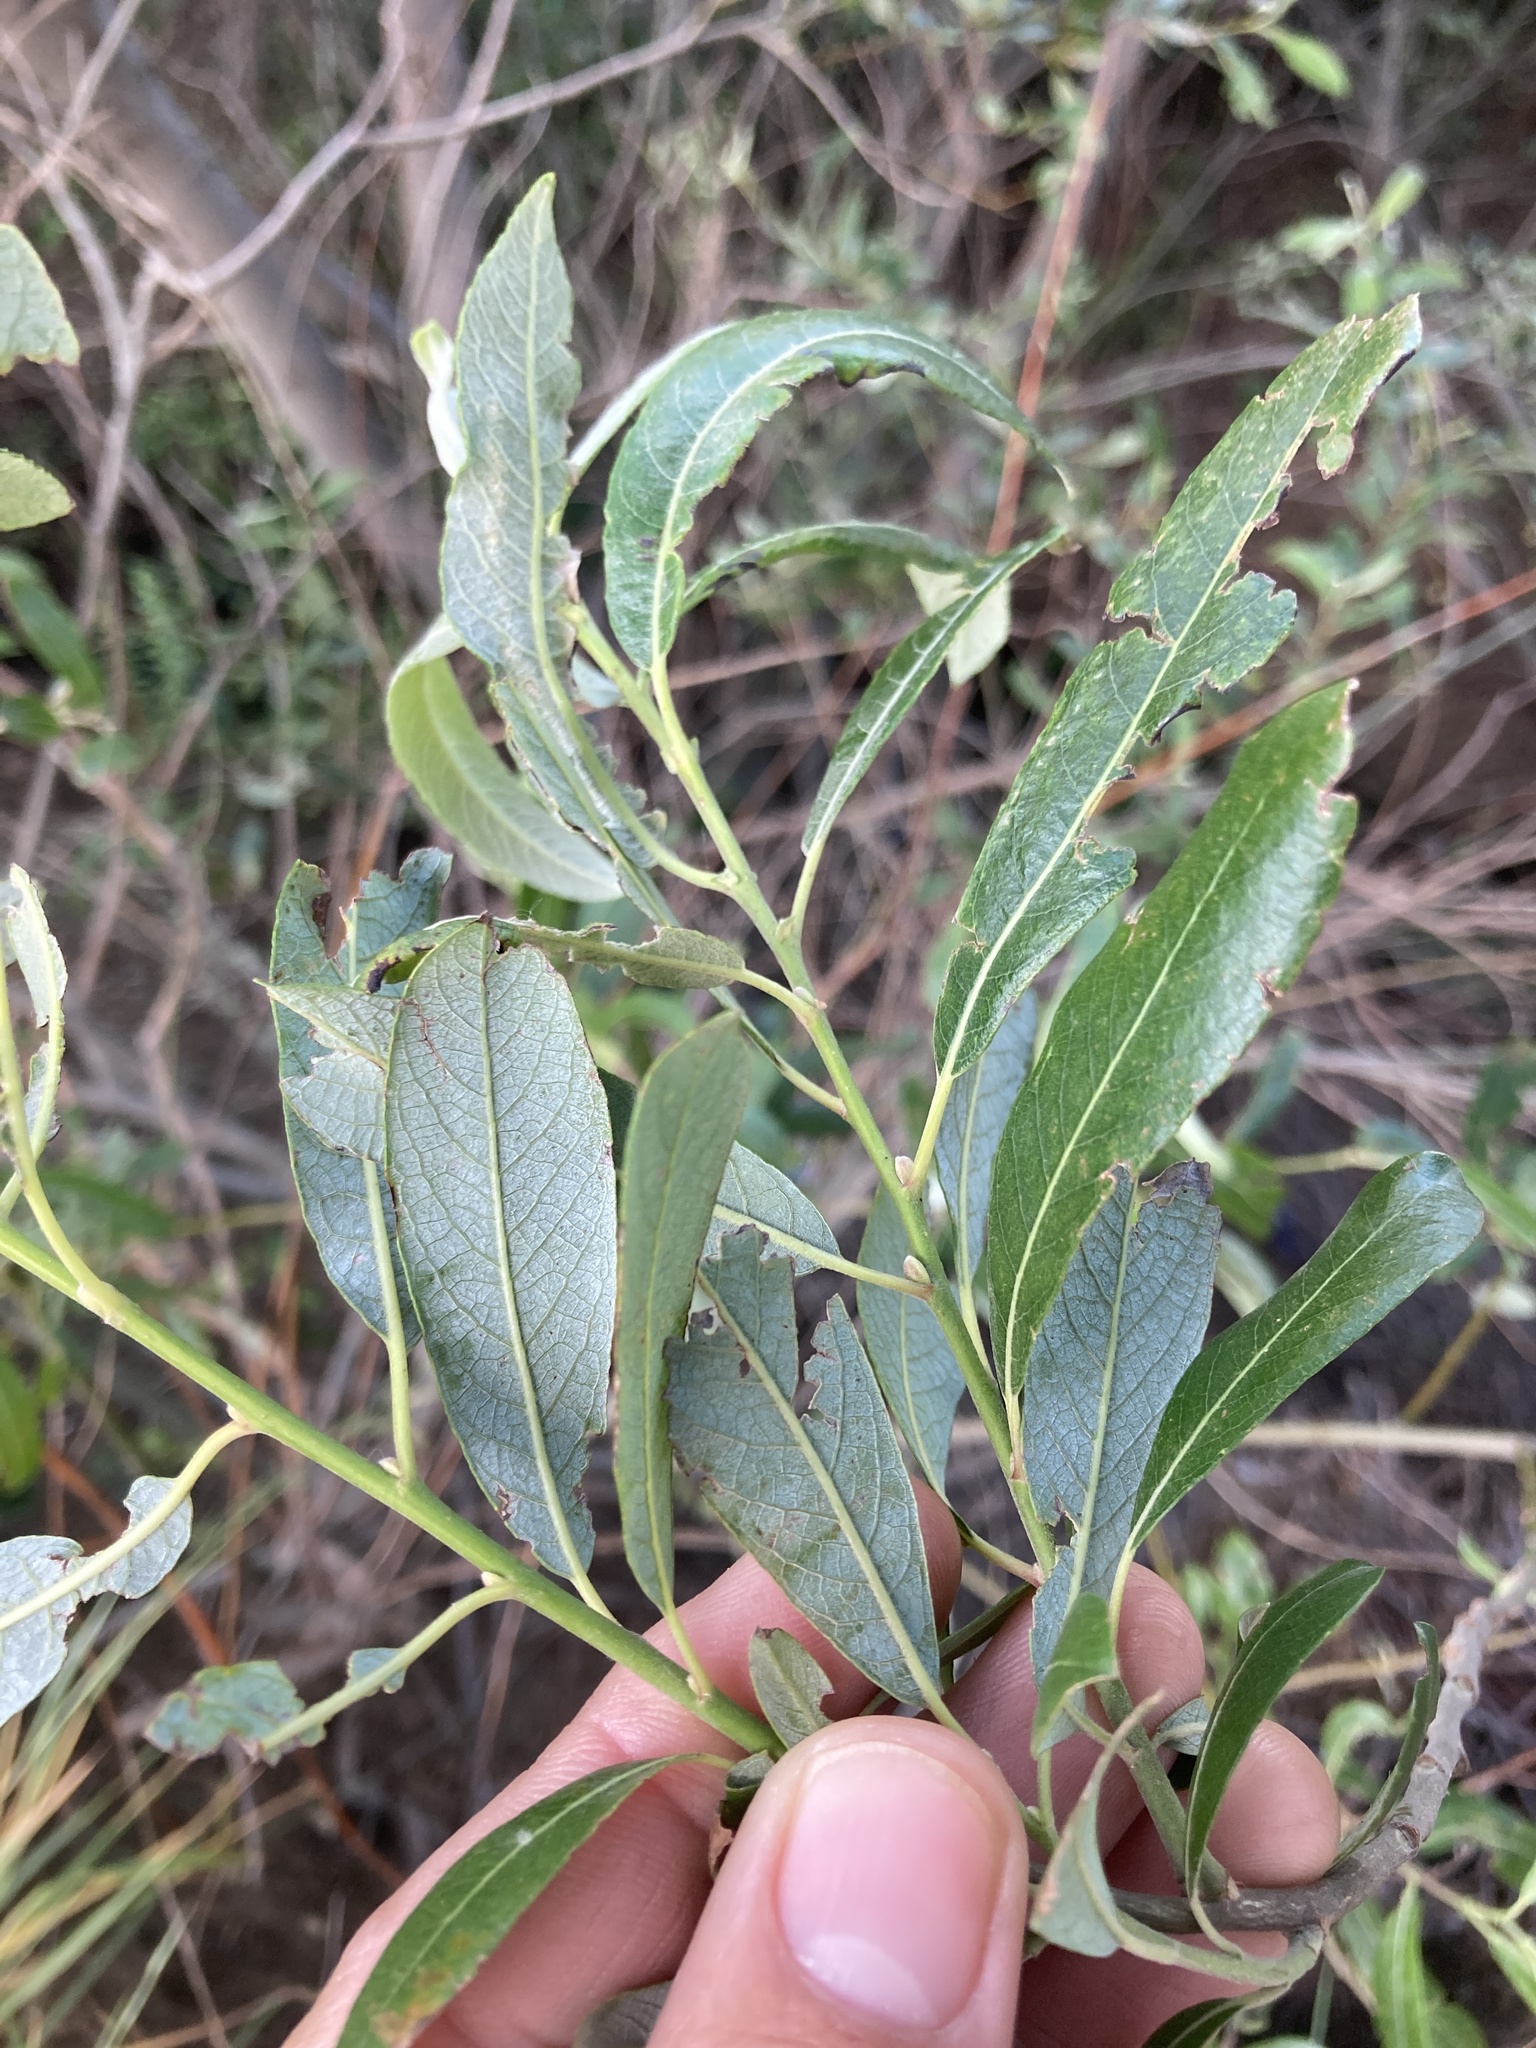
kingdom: Plantae
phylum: Tracheophyta
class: Magnoliopsida
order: Malpighiales
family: Salicaceae
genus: Salix
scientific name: Salix lasiolepis
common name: Arroyo willow
